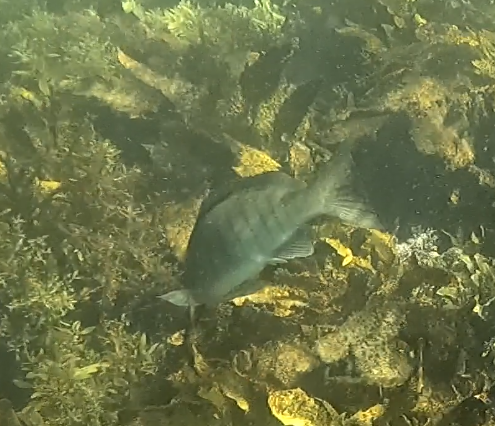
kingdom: Animalia
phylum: Chordata
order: Perciformes
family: Kyphosidae
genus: Girella
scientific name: Girella tricuspidata
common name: Parore
